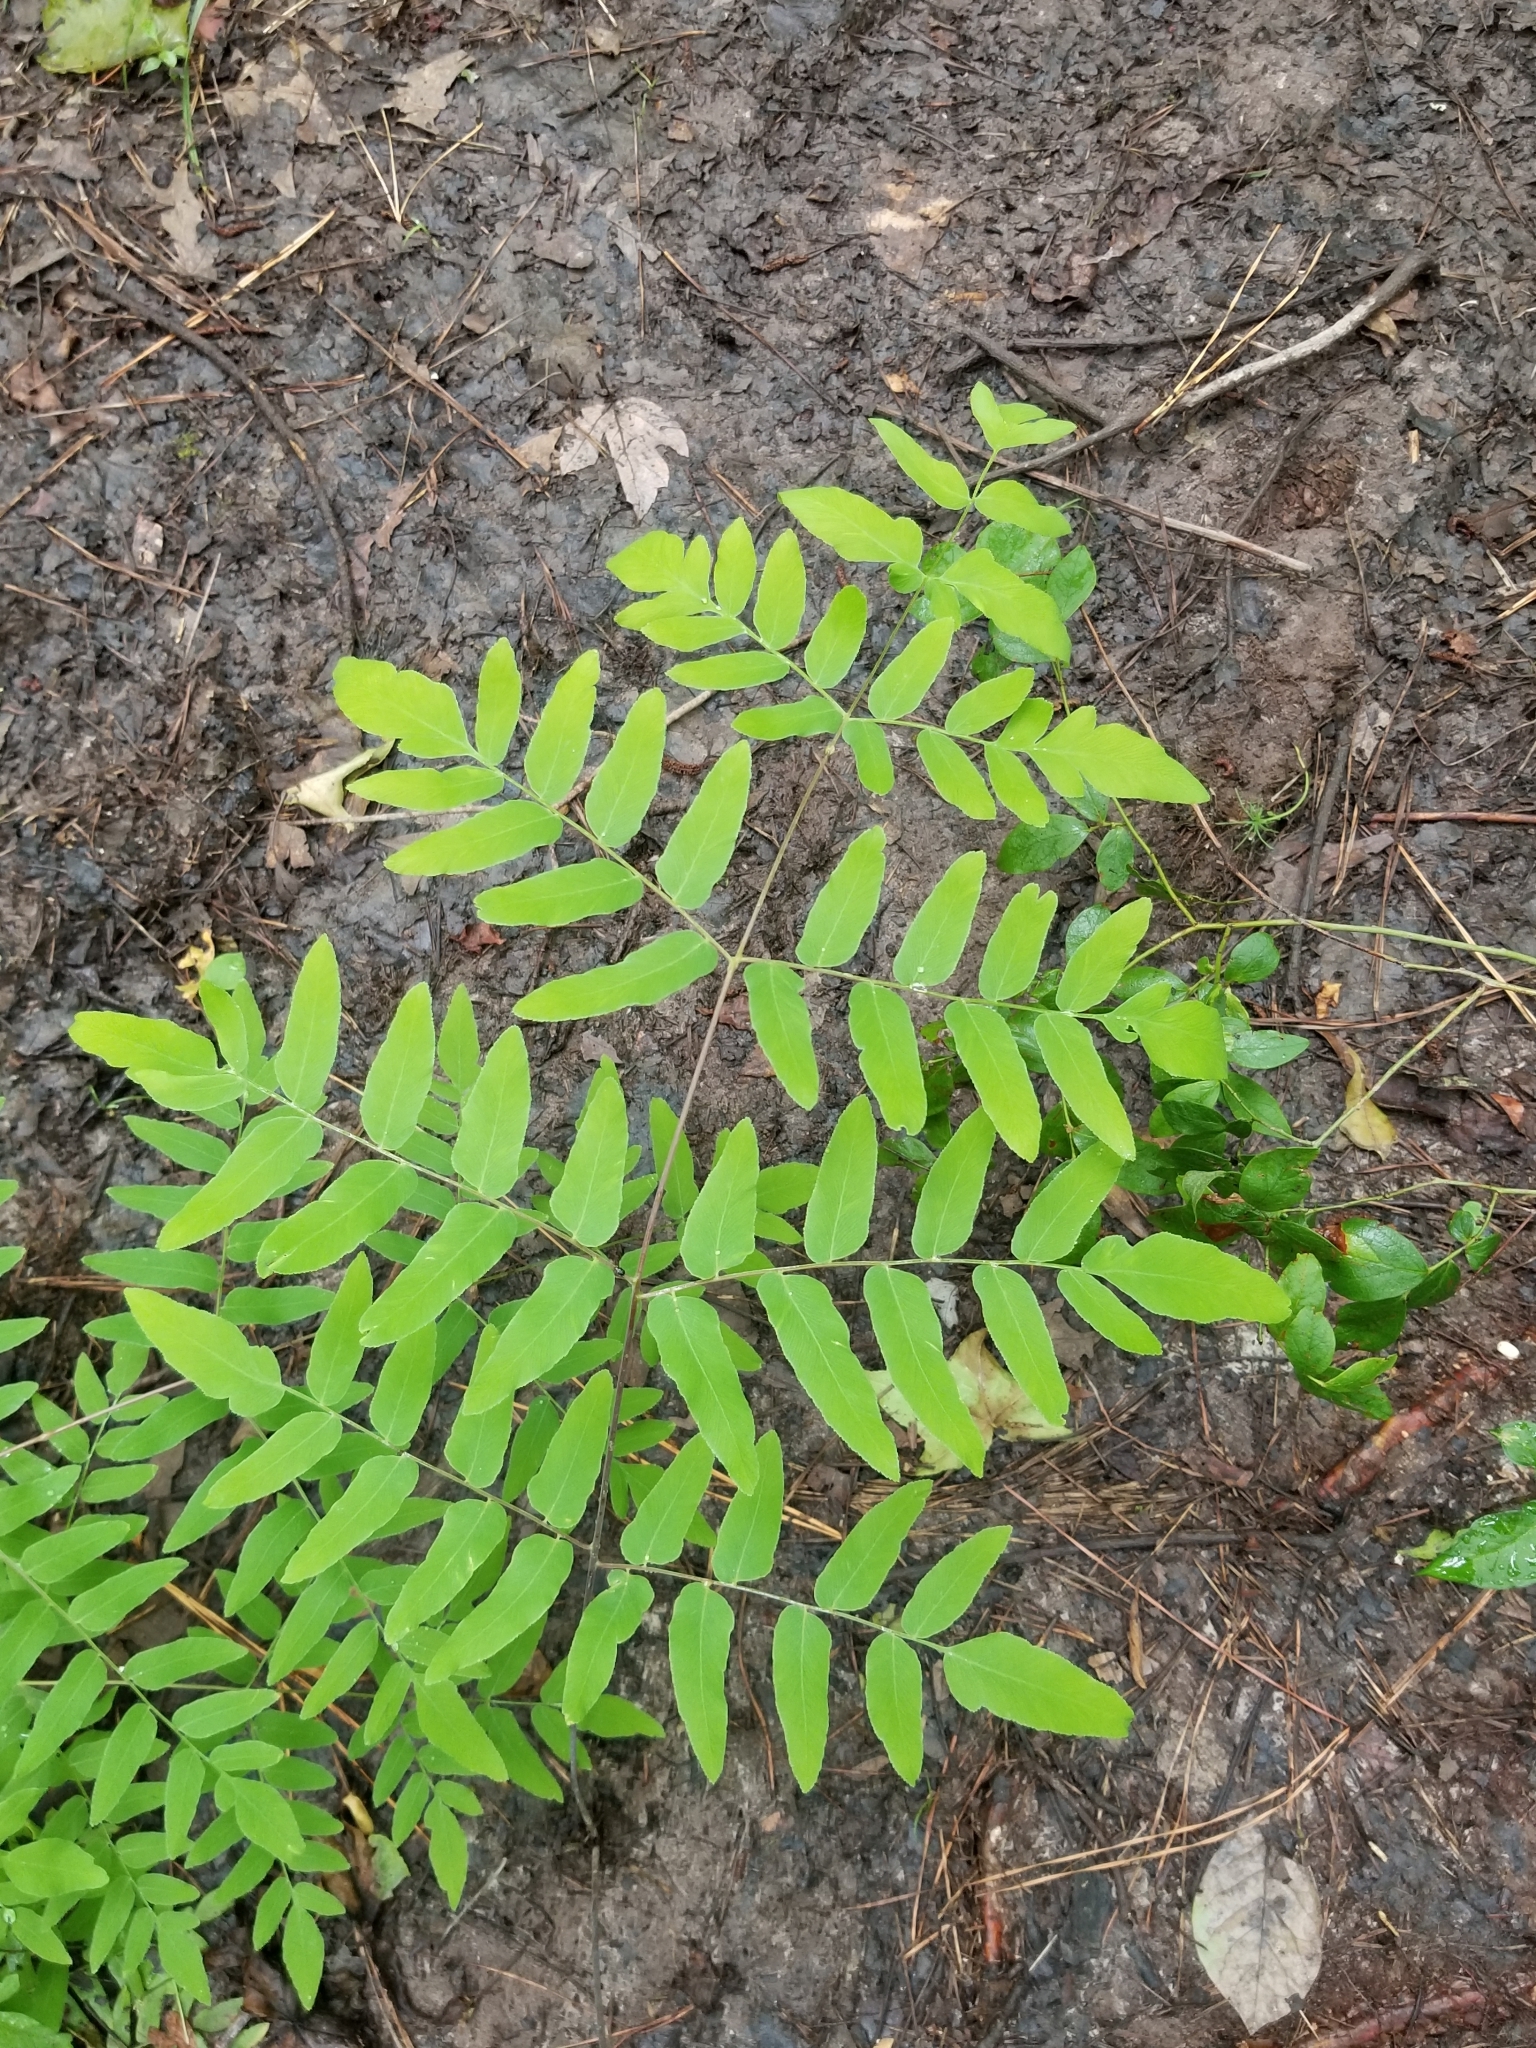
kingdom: Plantae
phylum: Tracheophyta
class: Polypodiopsida
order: Osmundales
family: Osmundaceae
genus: Osmunda
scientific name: Osmunda spectabilis
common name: American royal fern
